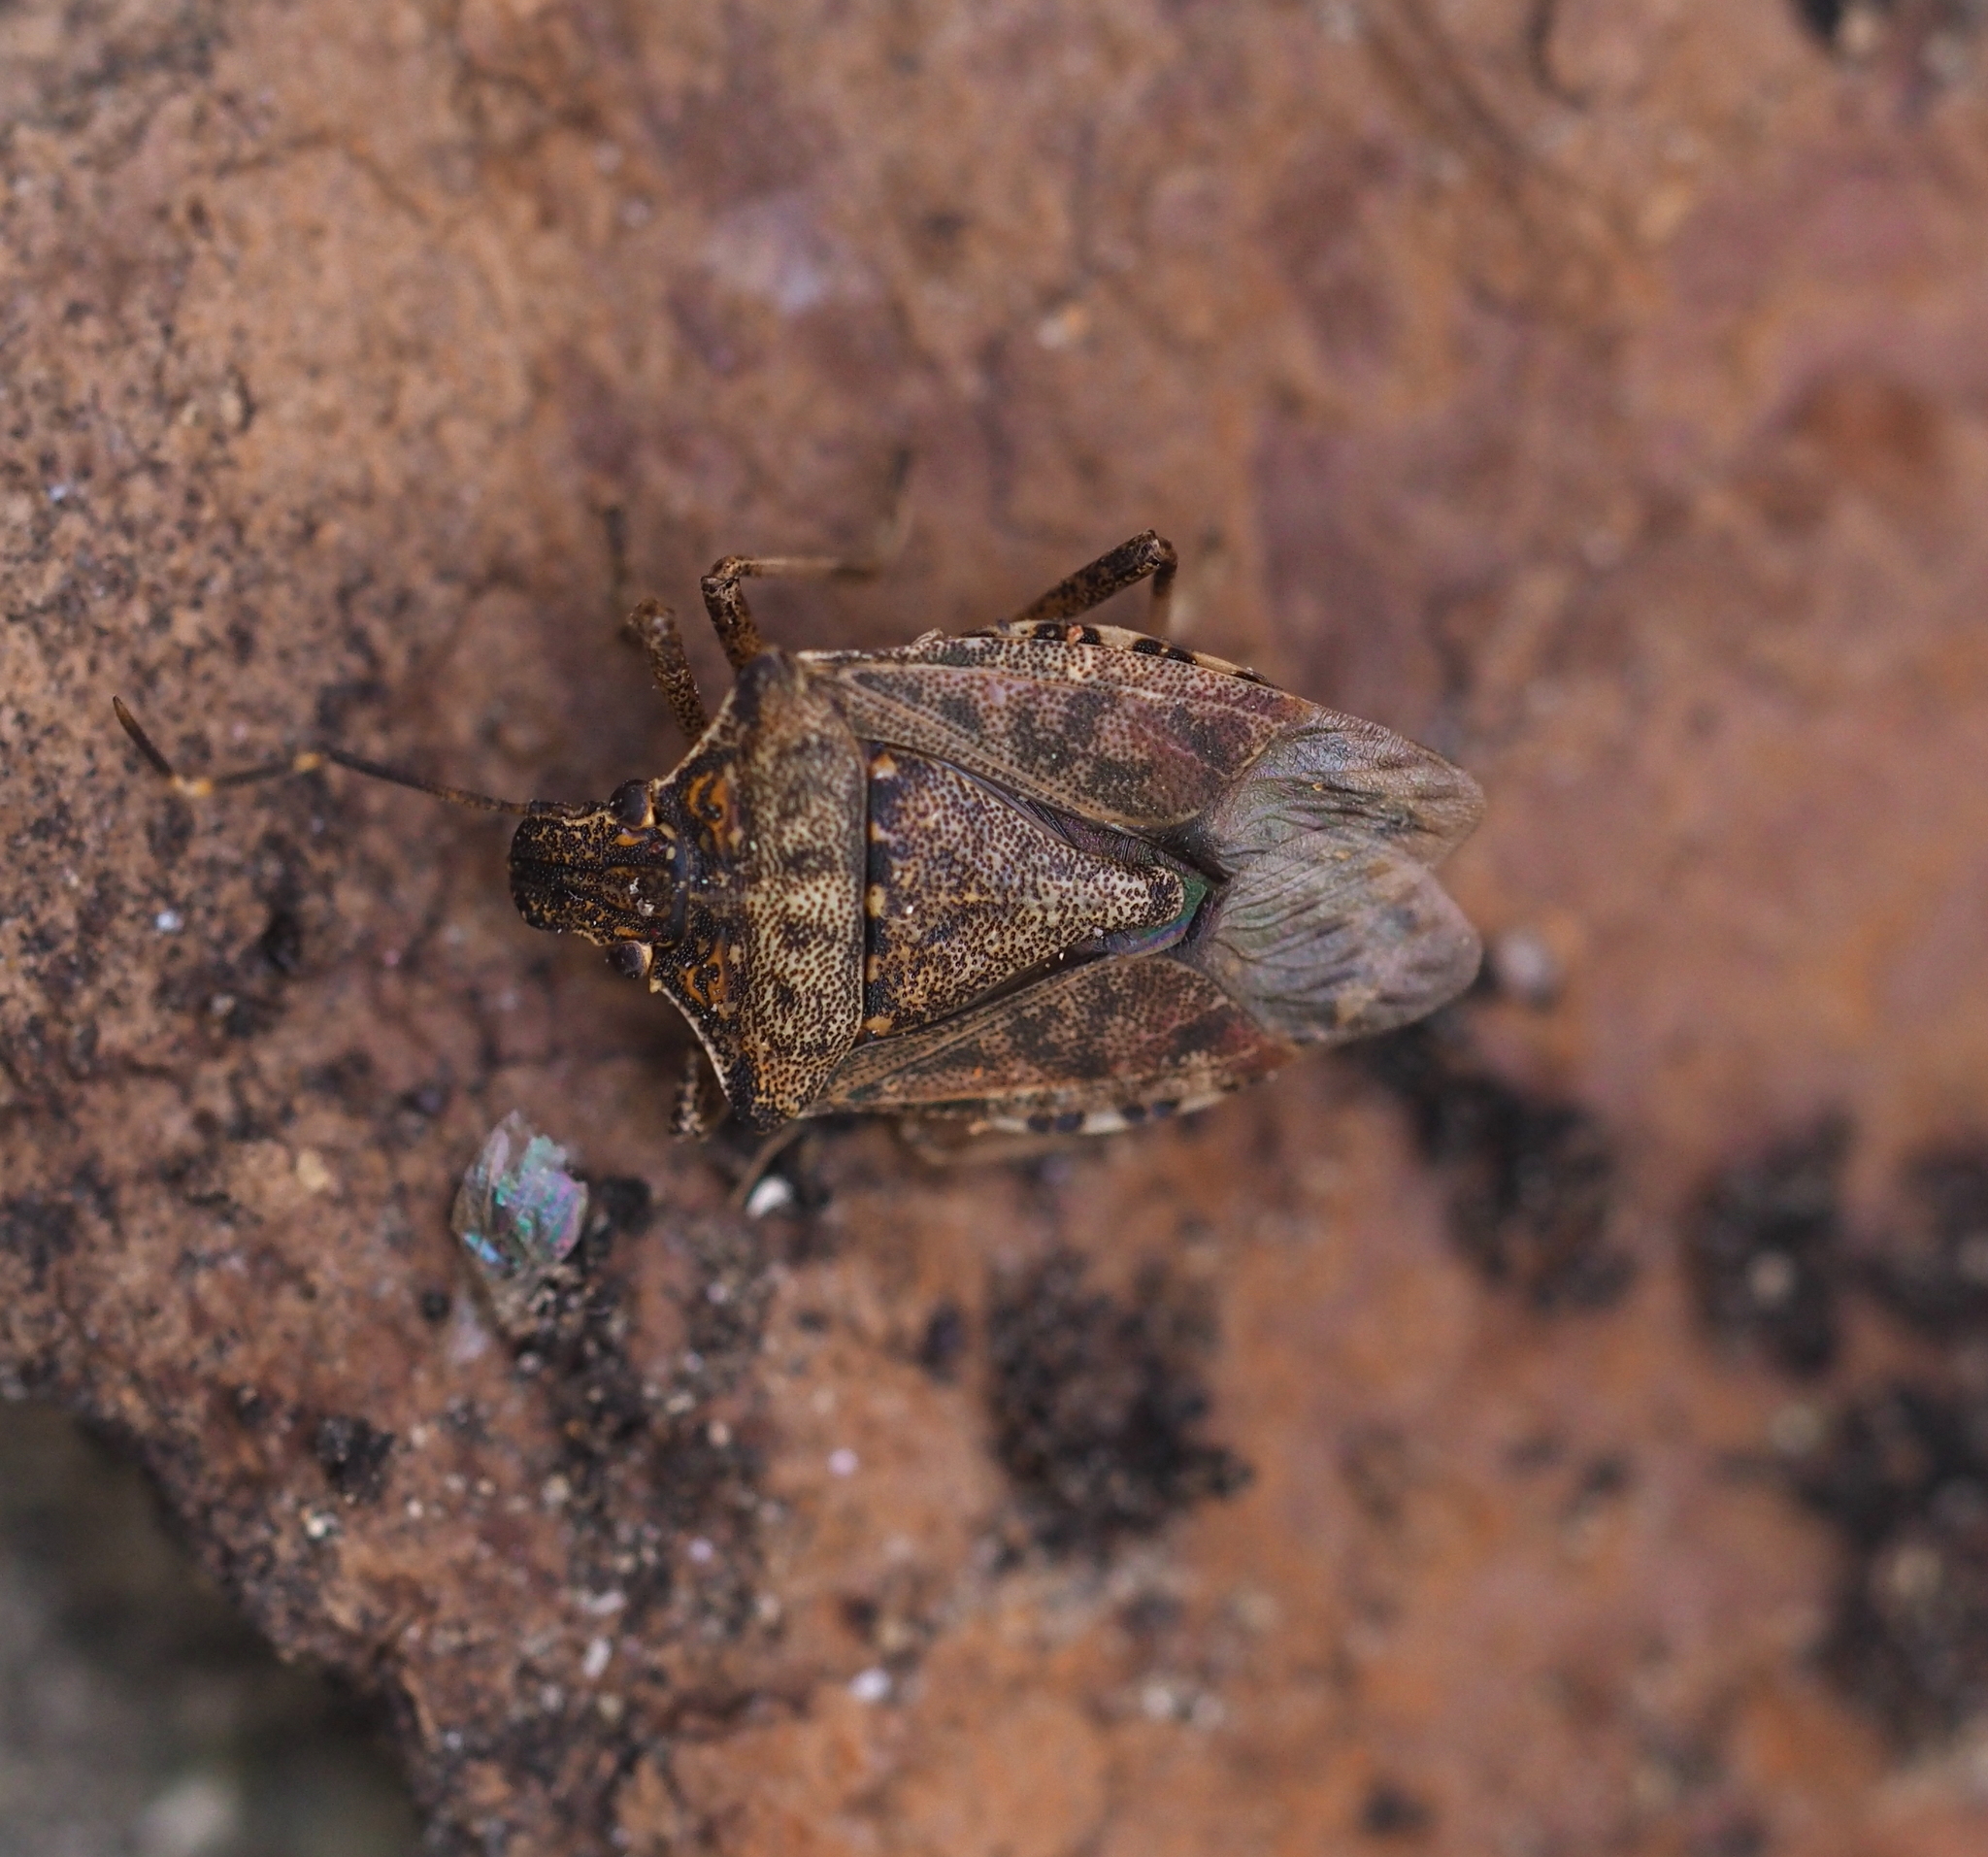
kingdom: Animalia
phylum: Arthropoda
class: Insecta
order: Hemiptera
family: Pentatomidae
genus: Halyomorpha
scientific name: Halyomorpha halys
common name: Brown marmorated stink bug
